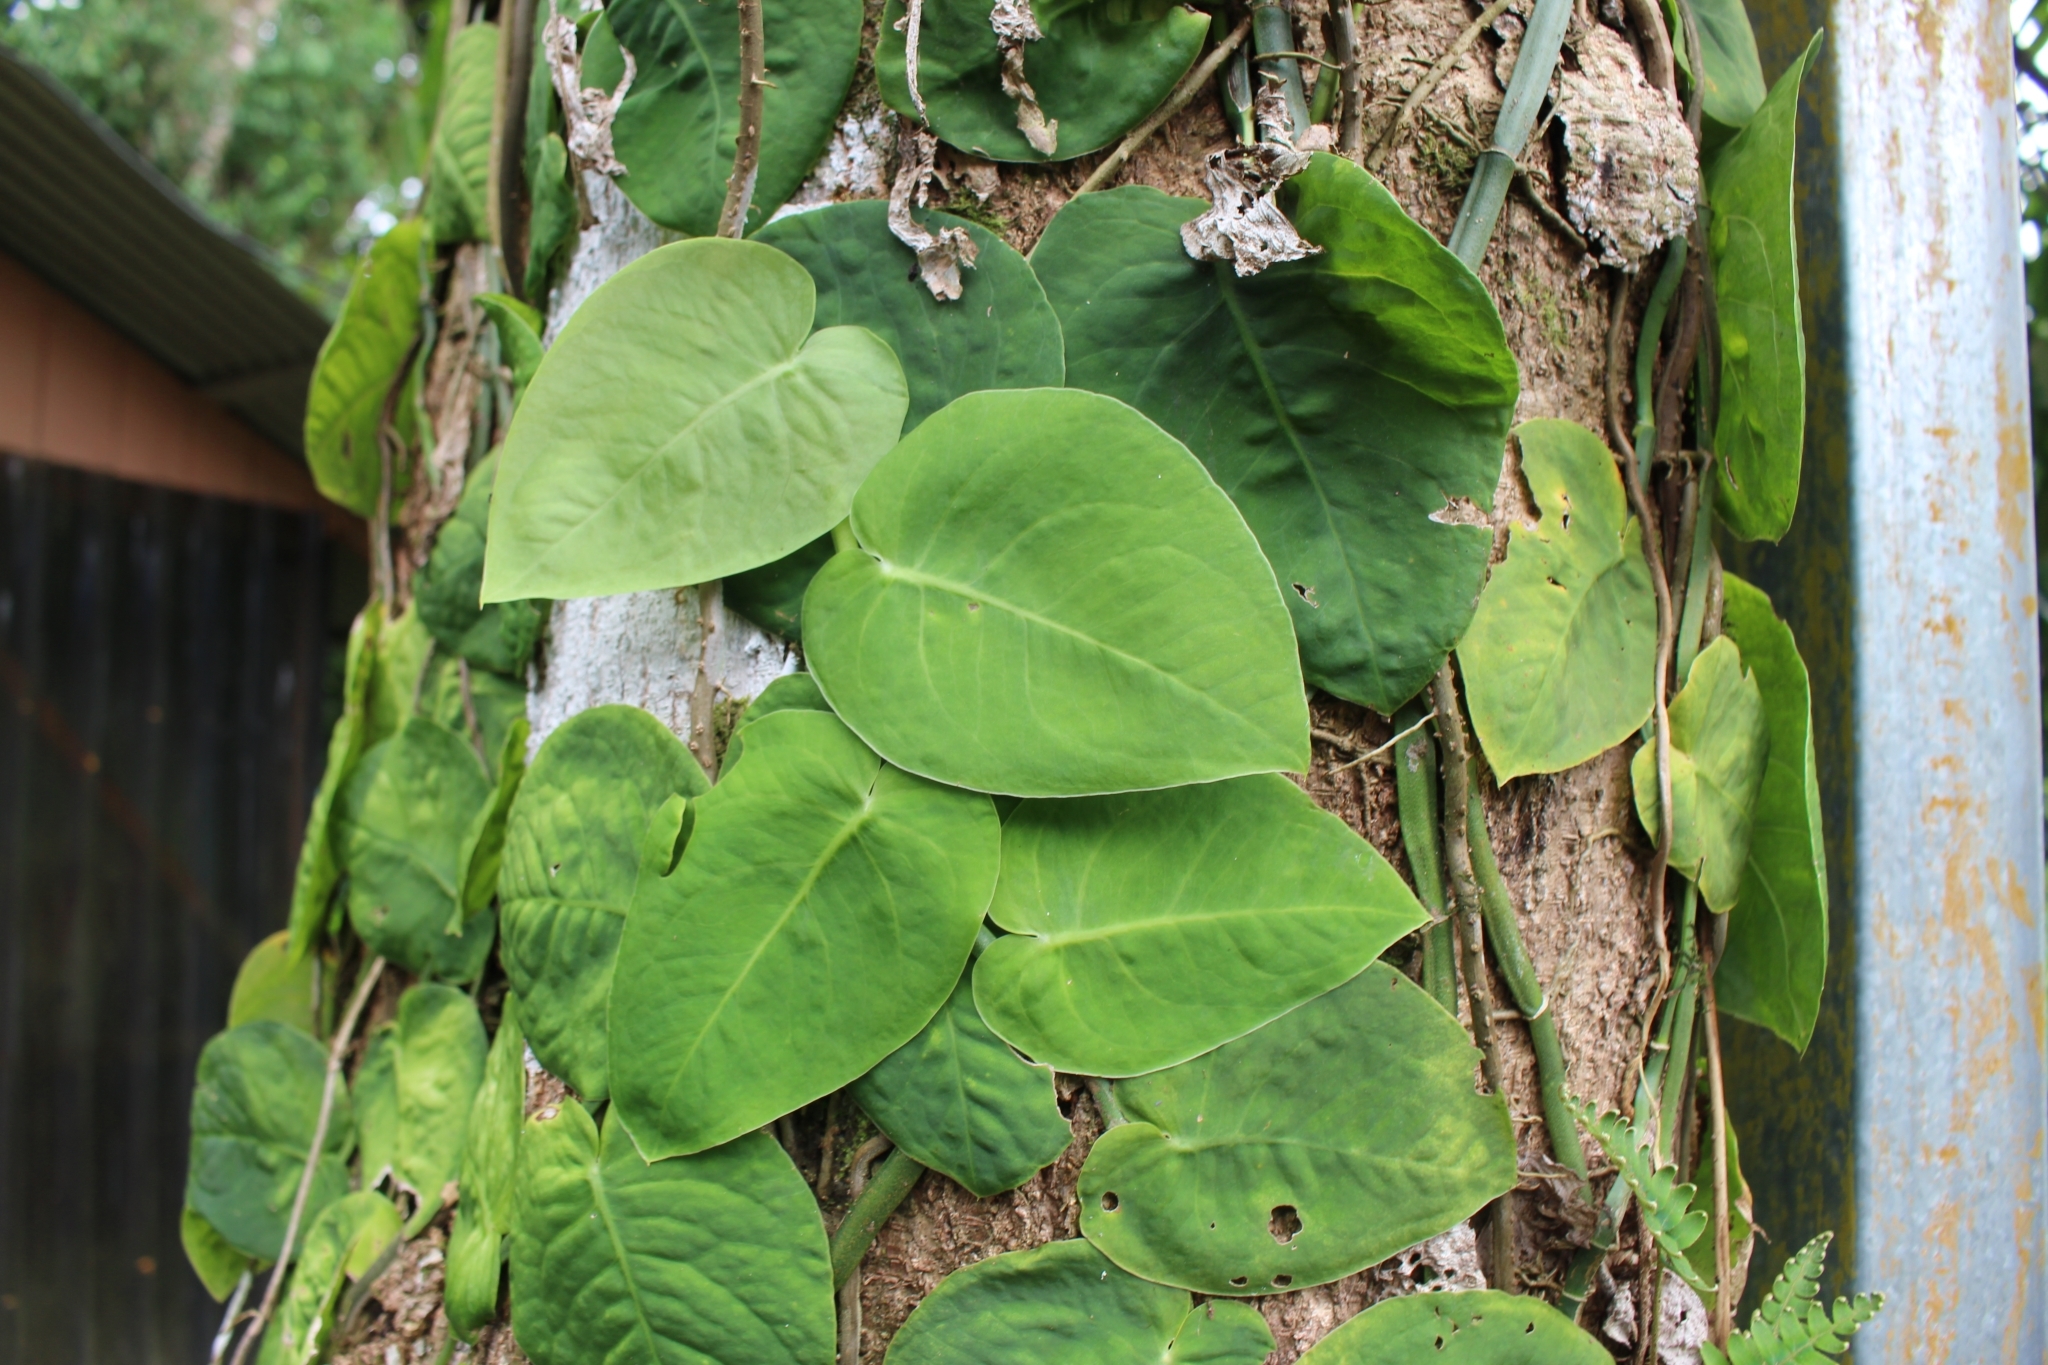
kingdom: Plantae
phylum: Tracheophyta
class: Liliopsida
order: Alismatales
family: Araceae
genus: Monstera
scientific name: Monstera dubia
